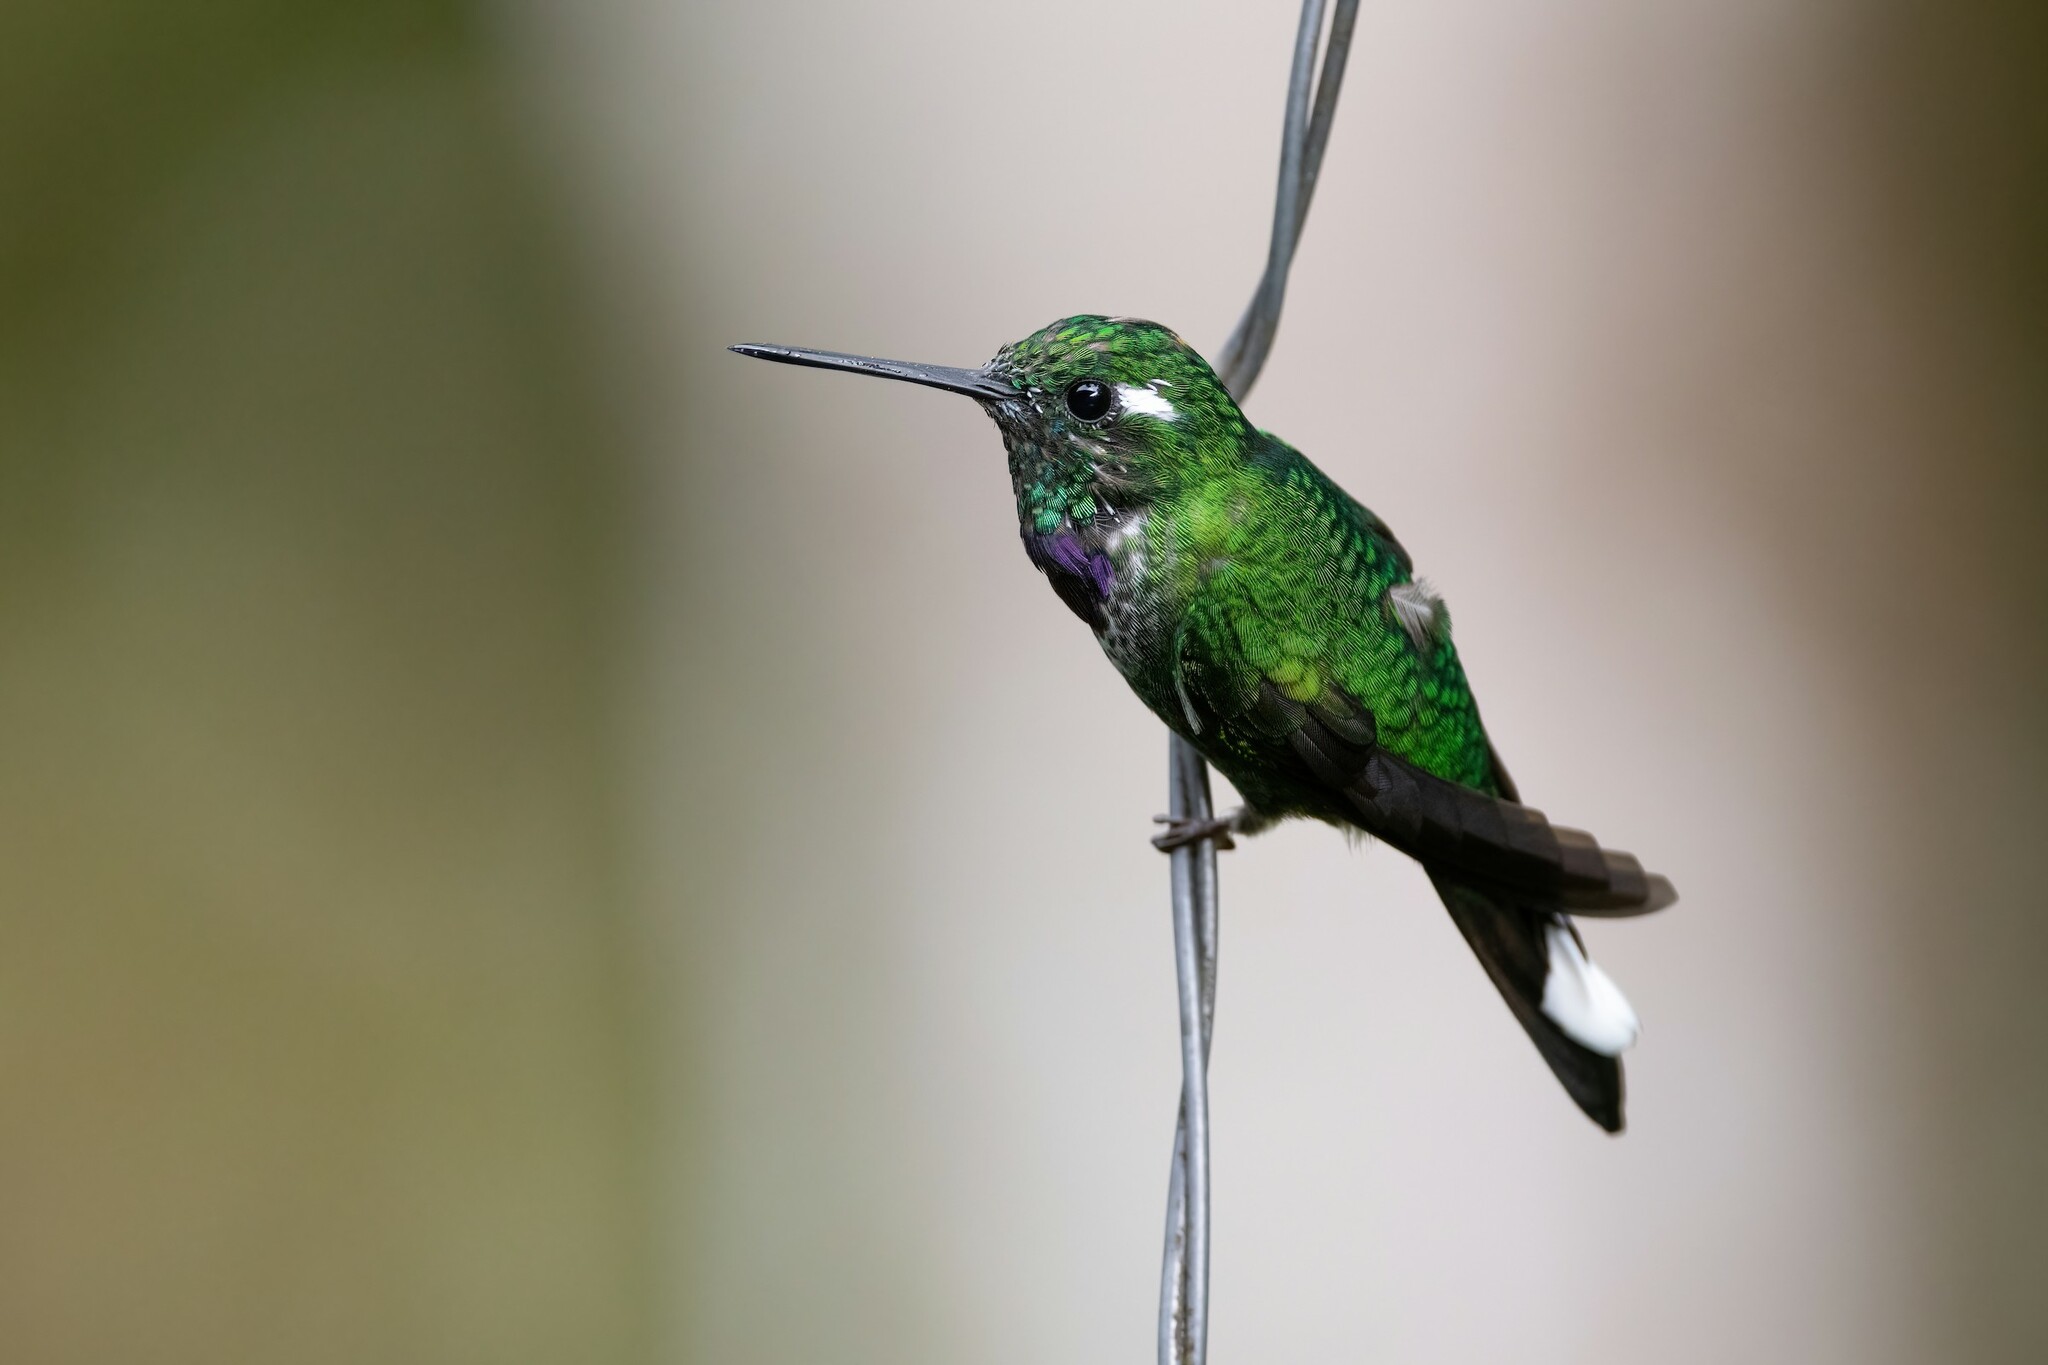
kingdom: Animalia
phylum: Chordata
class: Aves
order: Apodiformes
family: Trochilidae
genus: Urosticte
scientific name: Urosticte benjamini
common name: Purple-bibbed whitetip
